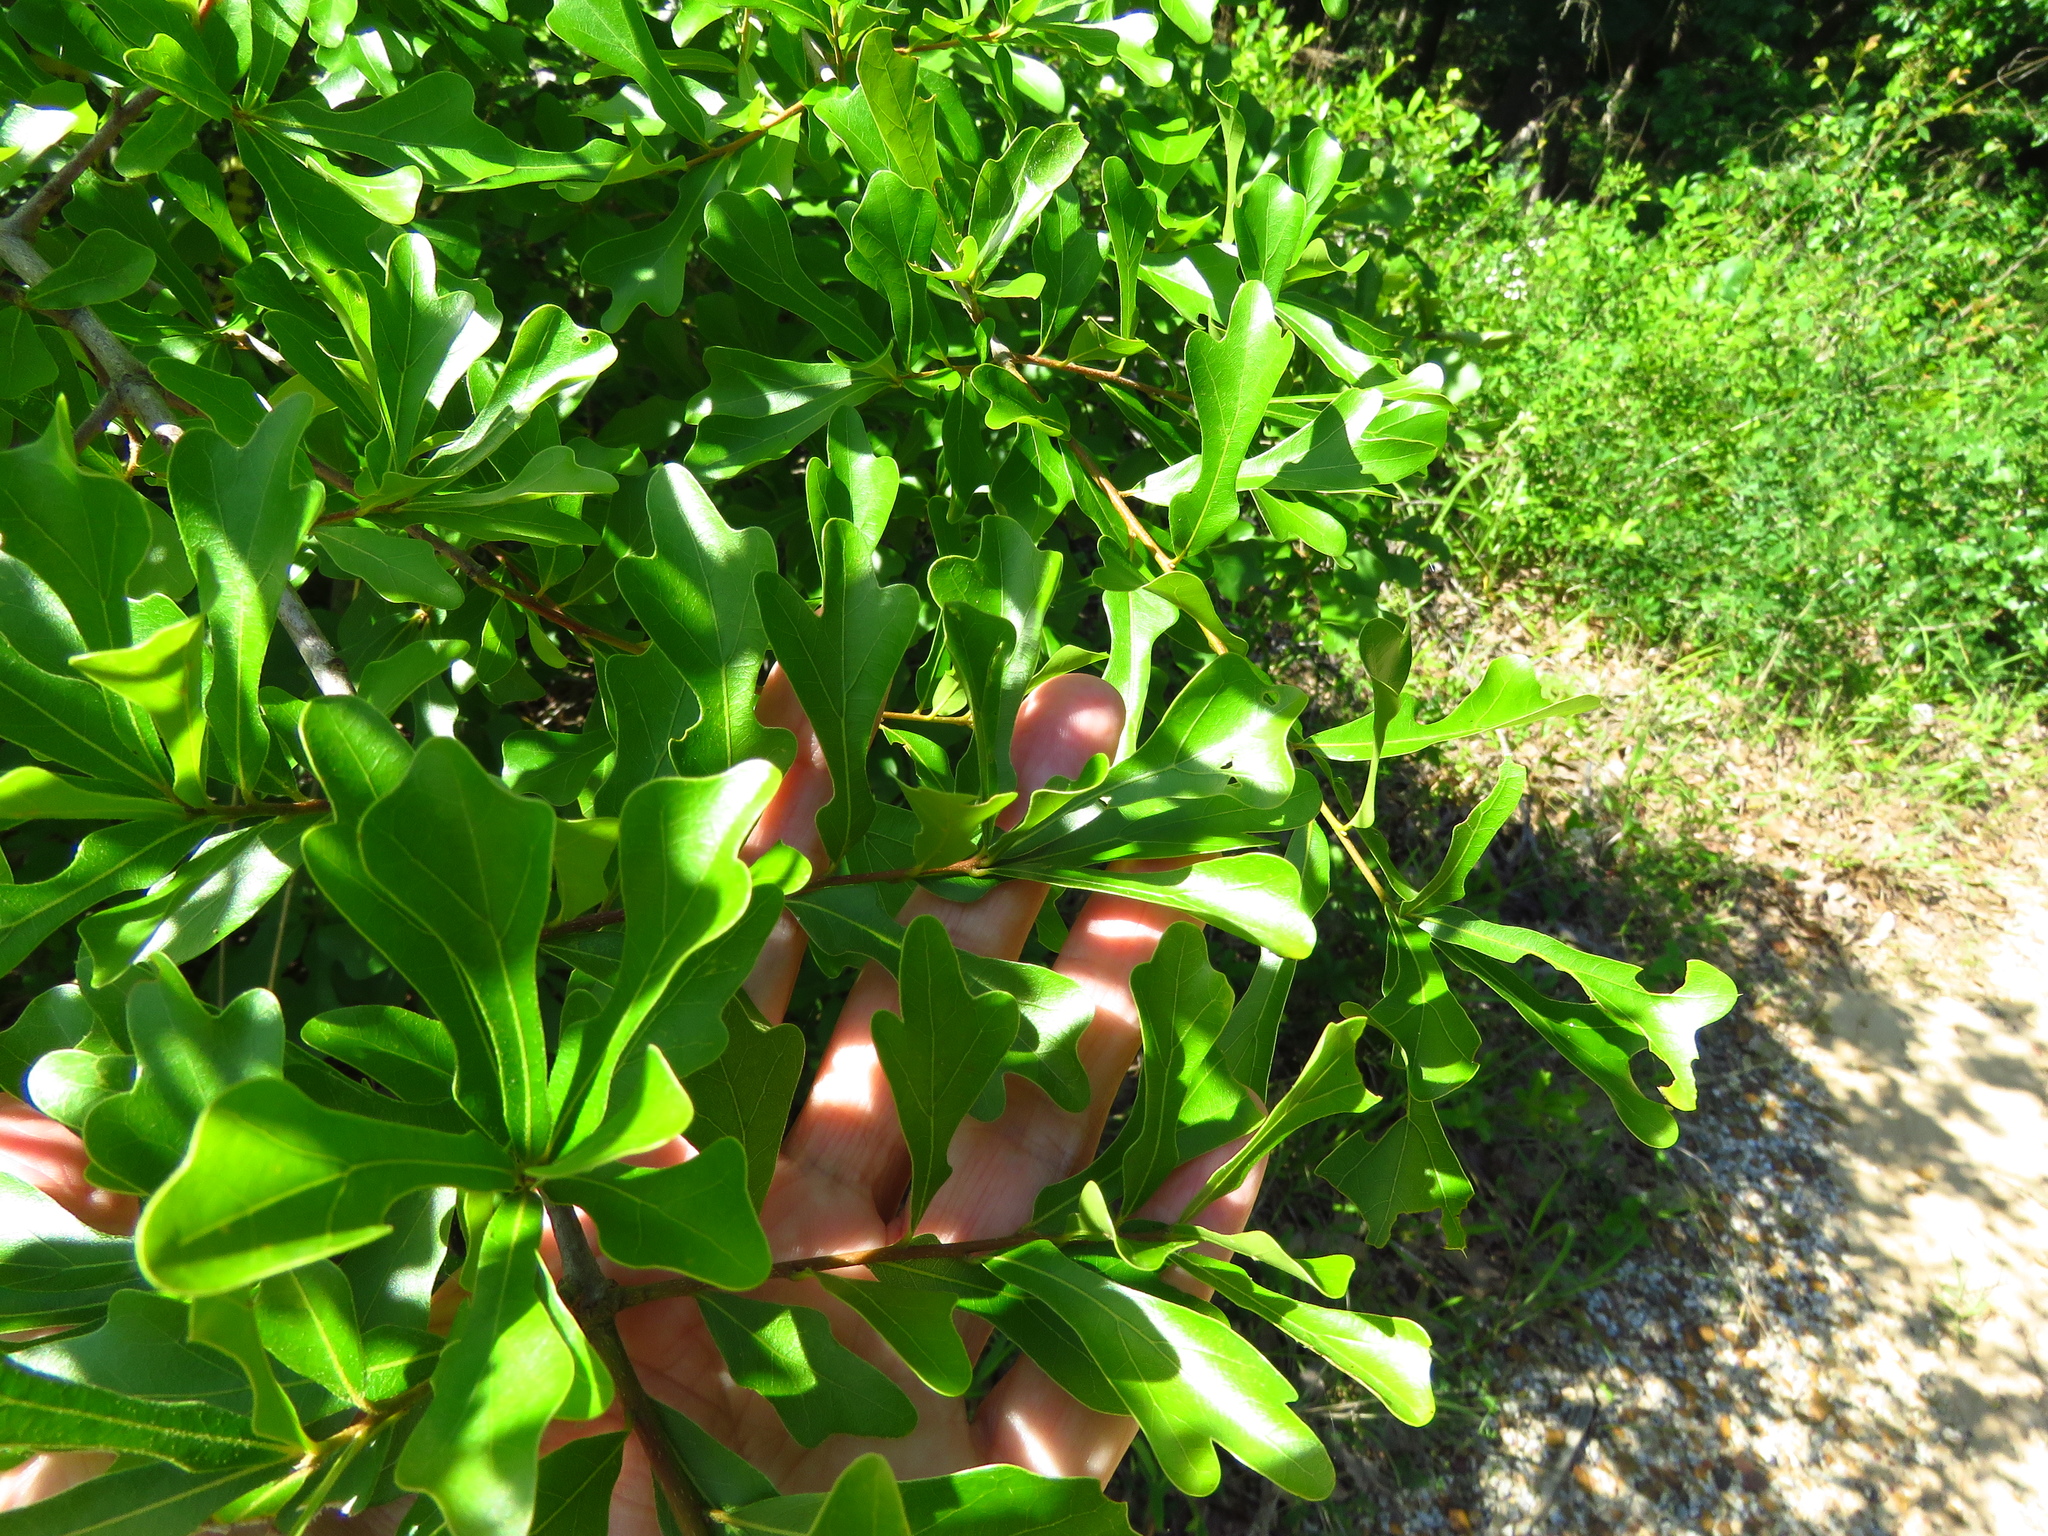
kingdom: Plantae
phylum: Tracheophyta
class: Magnoliopsida
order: Fagales
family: Fagaceae
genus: Quercus
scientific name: Quercus nigra
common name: Water oak
